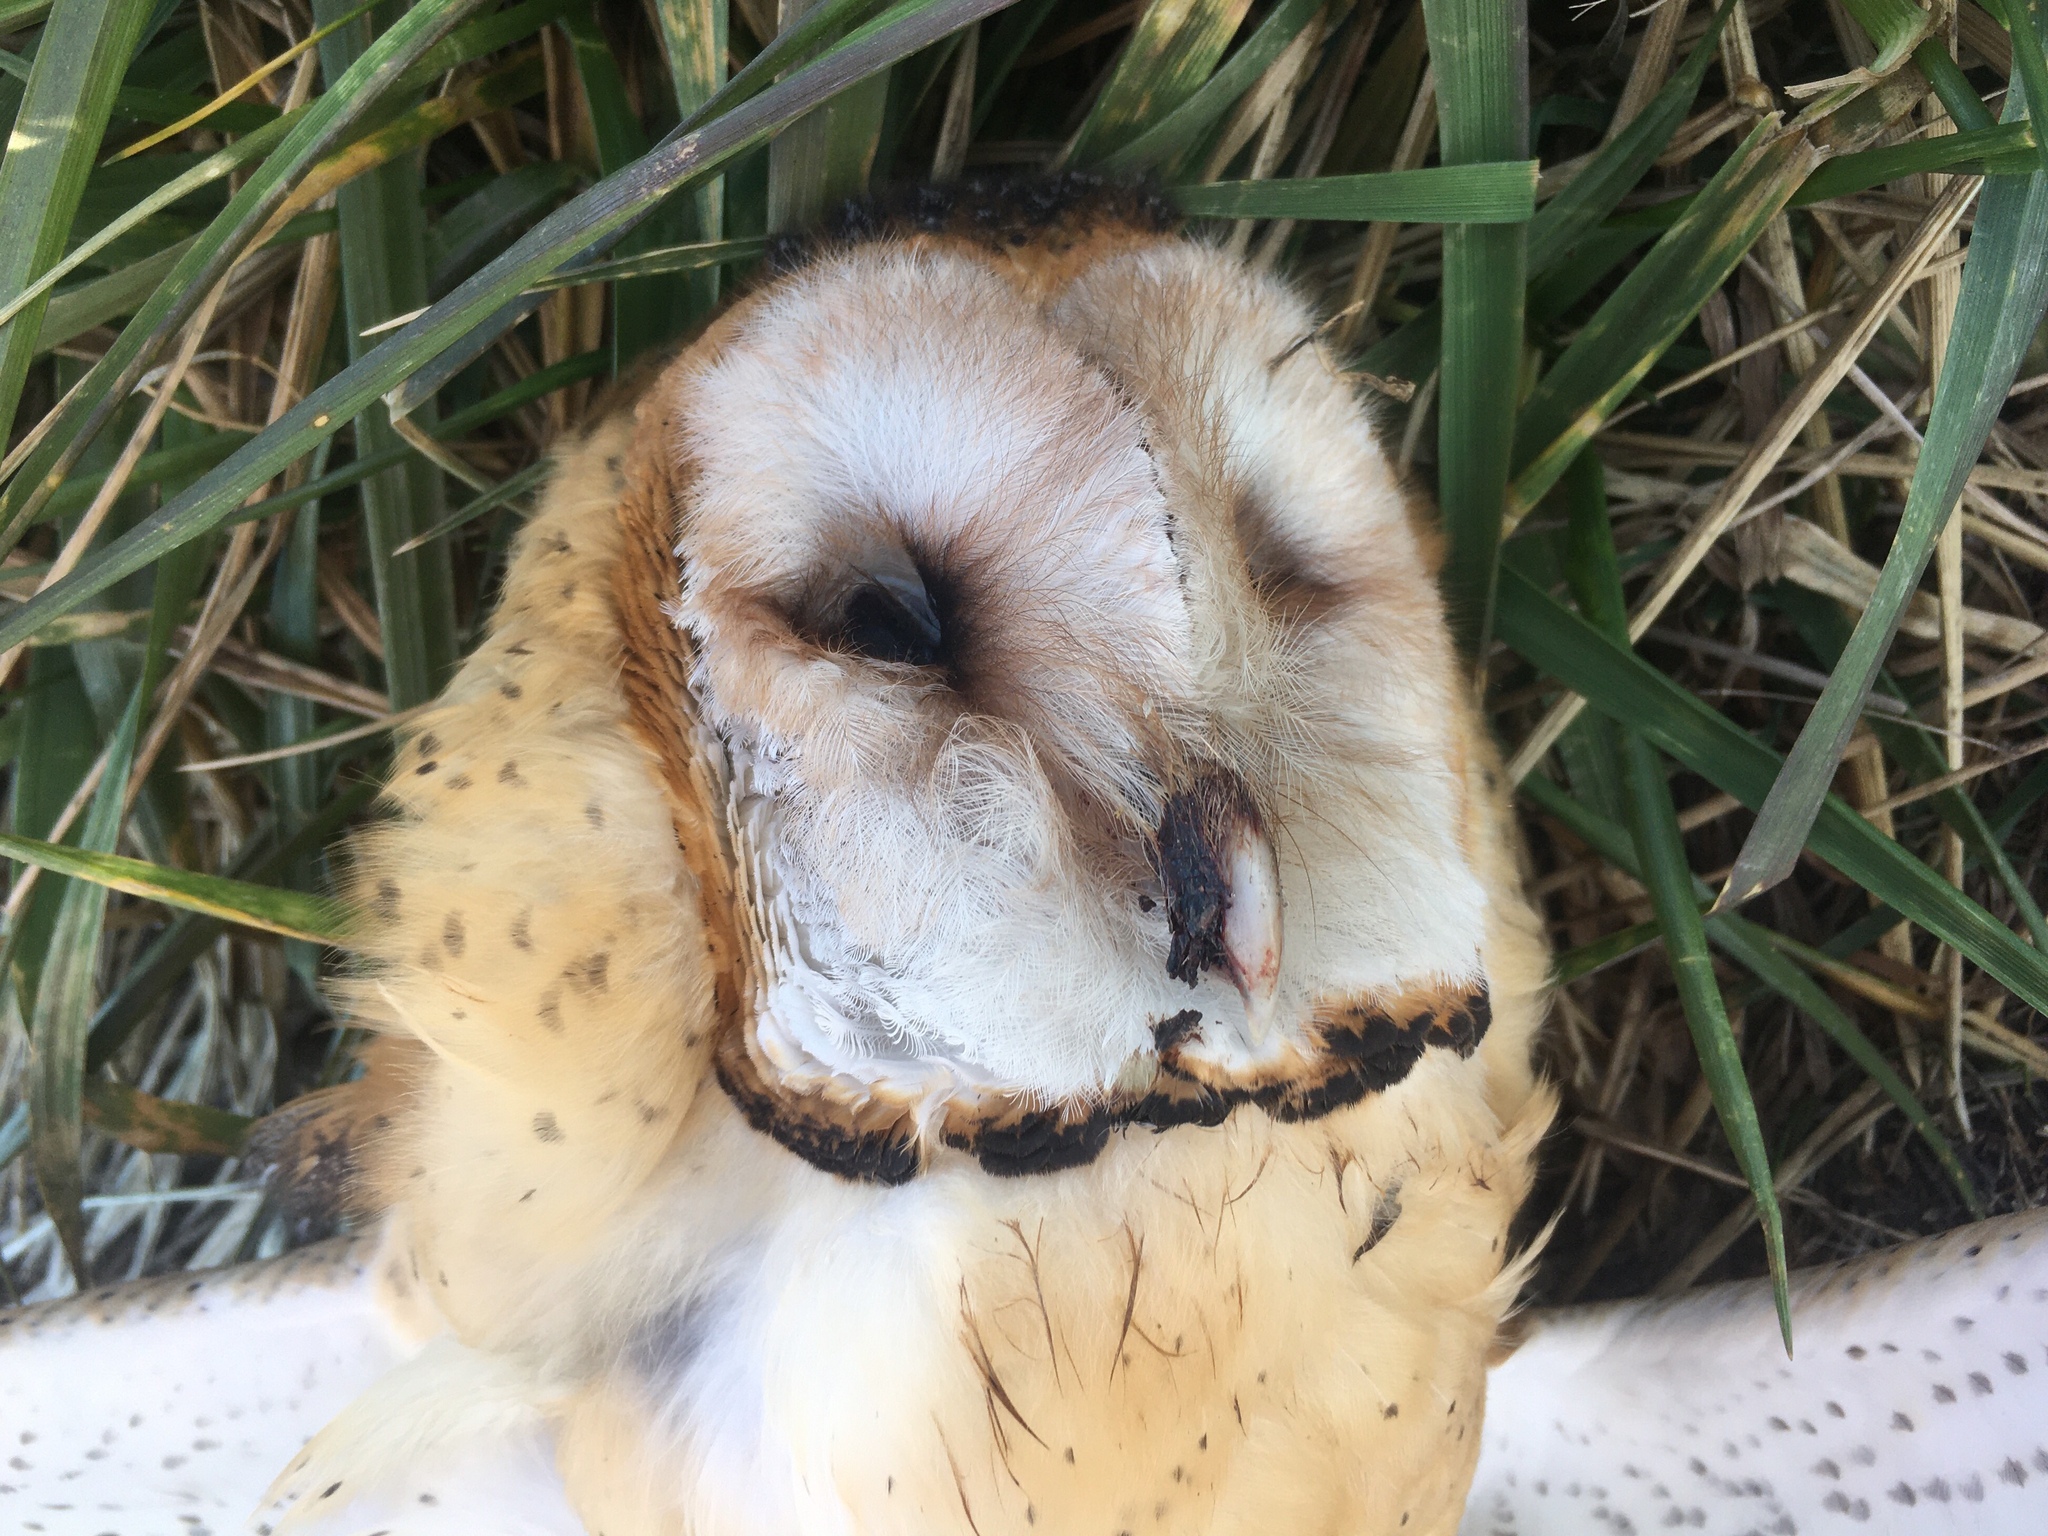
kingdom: Animalia
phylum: Chordata
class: Aves
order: Strigiformes
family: Tytonidae
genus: Tyto
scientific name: Tyto furcata
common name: American barn owl
